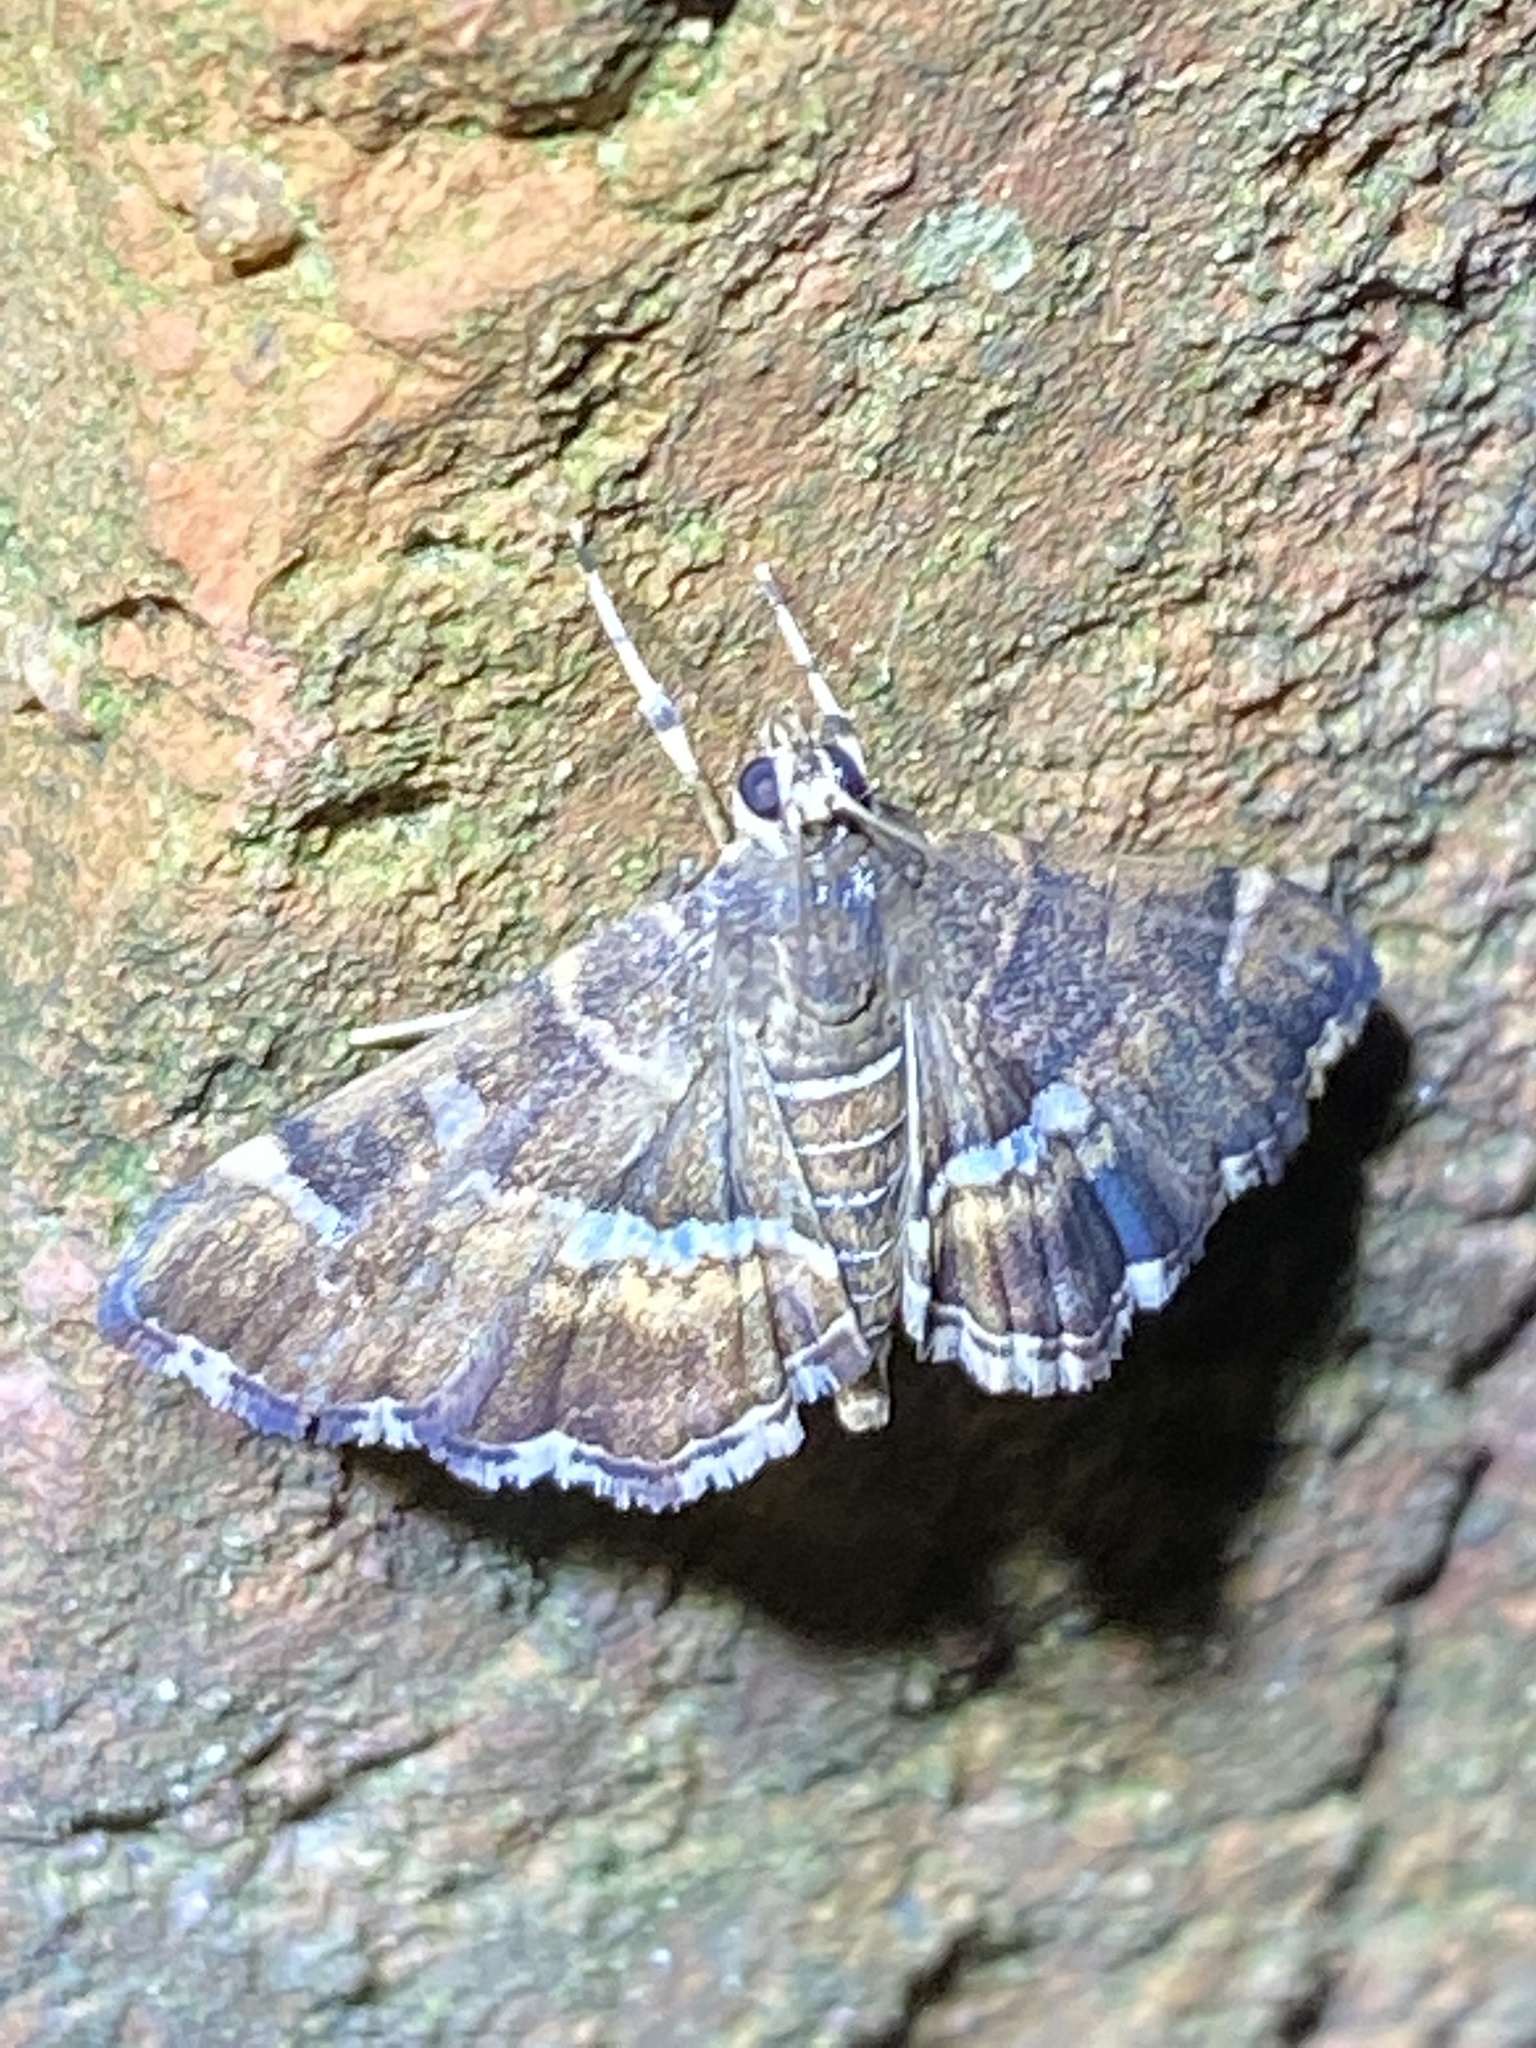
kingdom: Animalia
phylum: Arthropoda
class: Insecta
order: Lepidoptera
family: Crambidae
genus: Hymenia
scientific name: Hymenia perspectalis
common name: Spotted beet webworm
